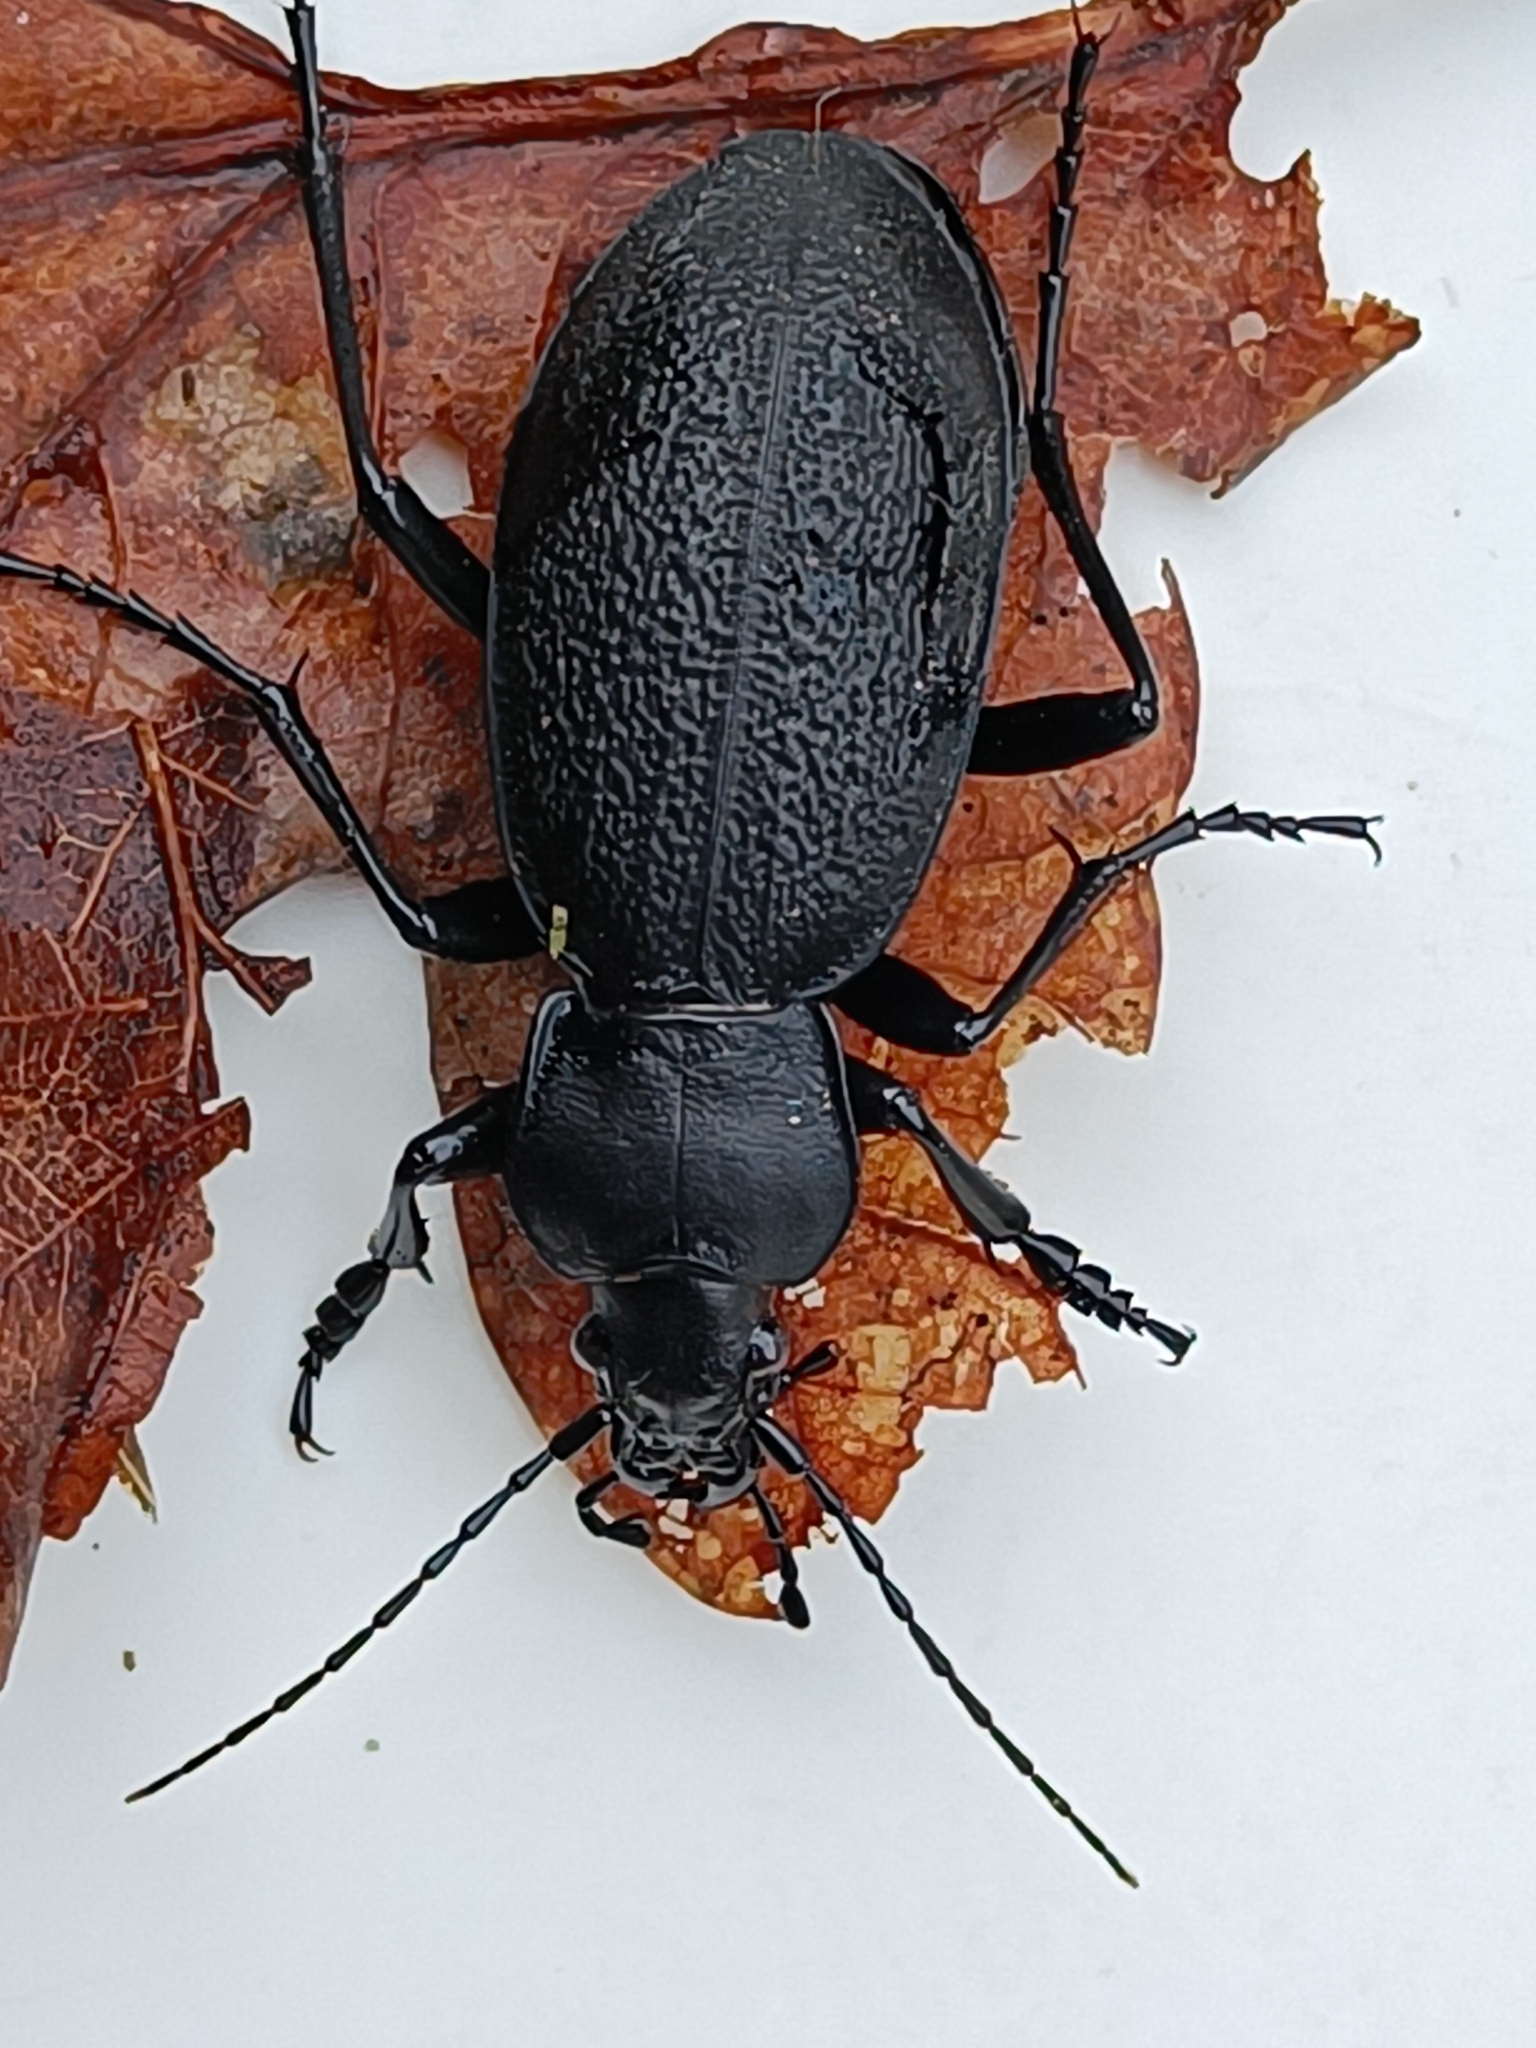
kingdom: Animalia
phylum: Arthropoda
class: Insecta
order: Coleoptera
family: Carabidae
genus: Carabus
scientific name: Carabus coriaceus
